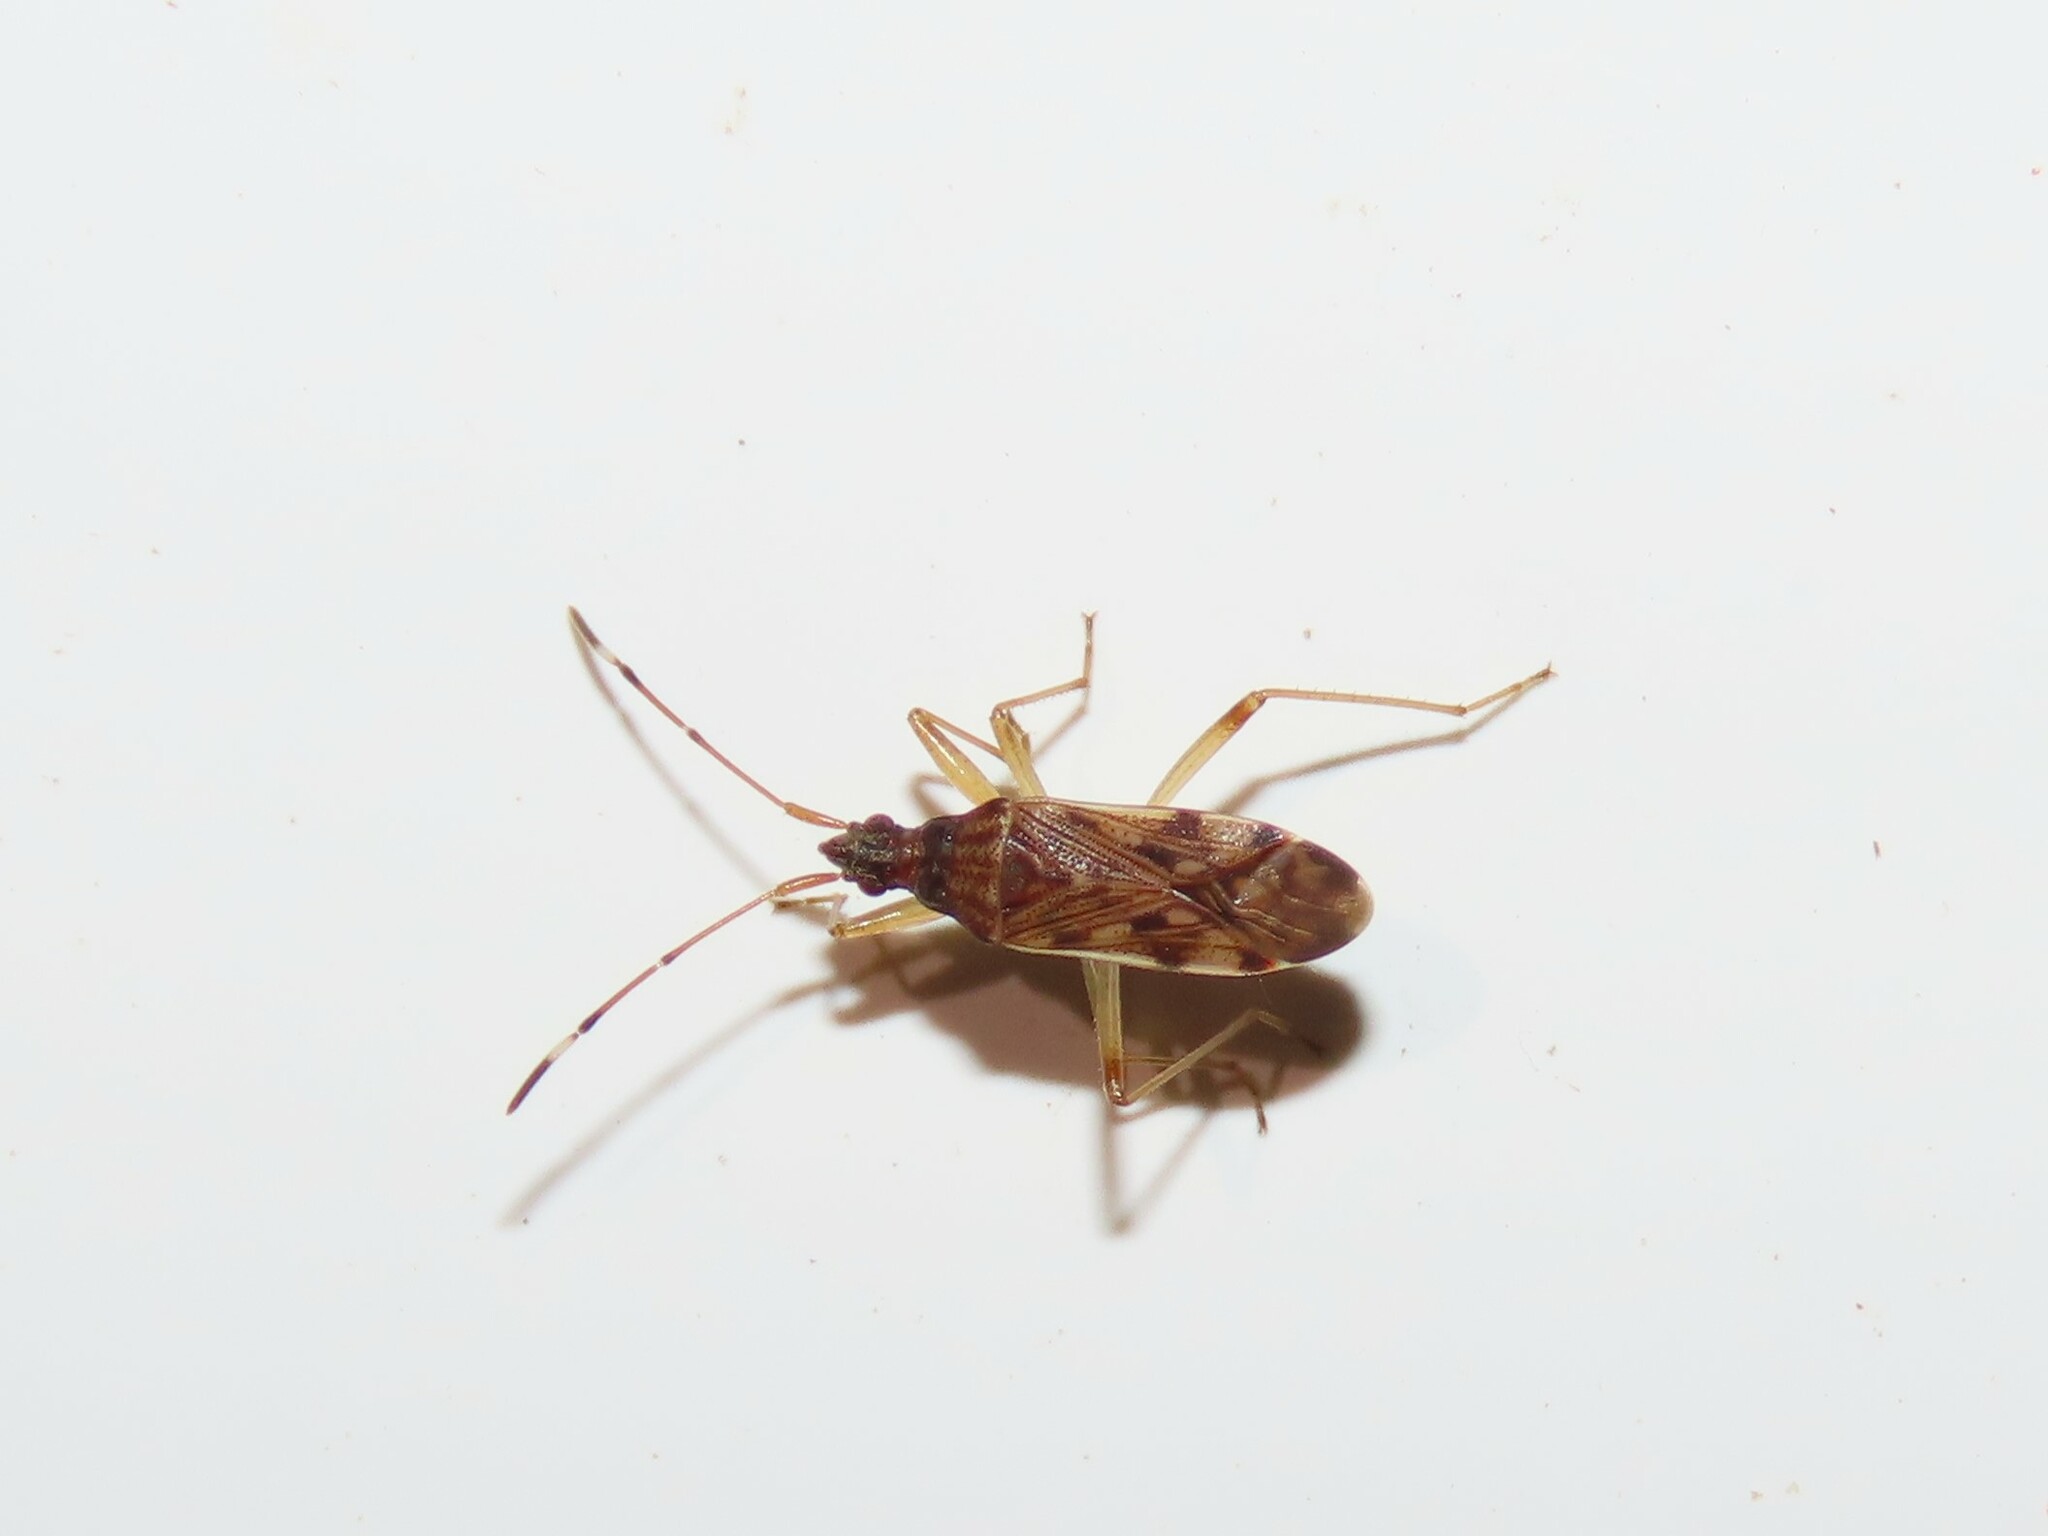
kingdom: Animalia
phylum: Arthropoda
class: Insecta
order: Hemiptera
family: Rhyparochromidae
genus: Ozophora
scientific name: Ozophora picturata
